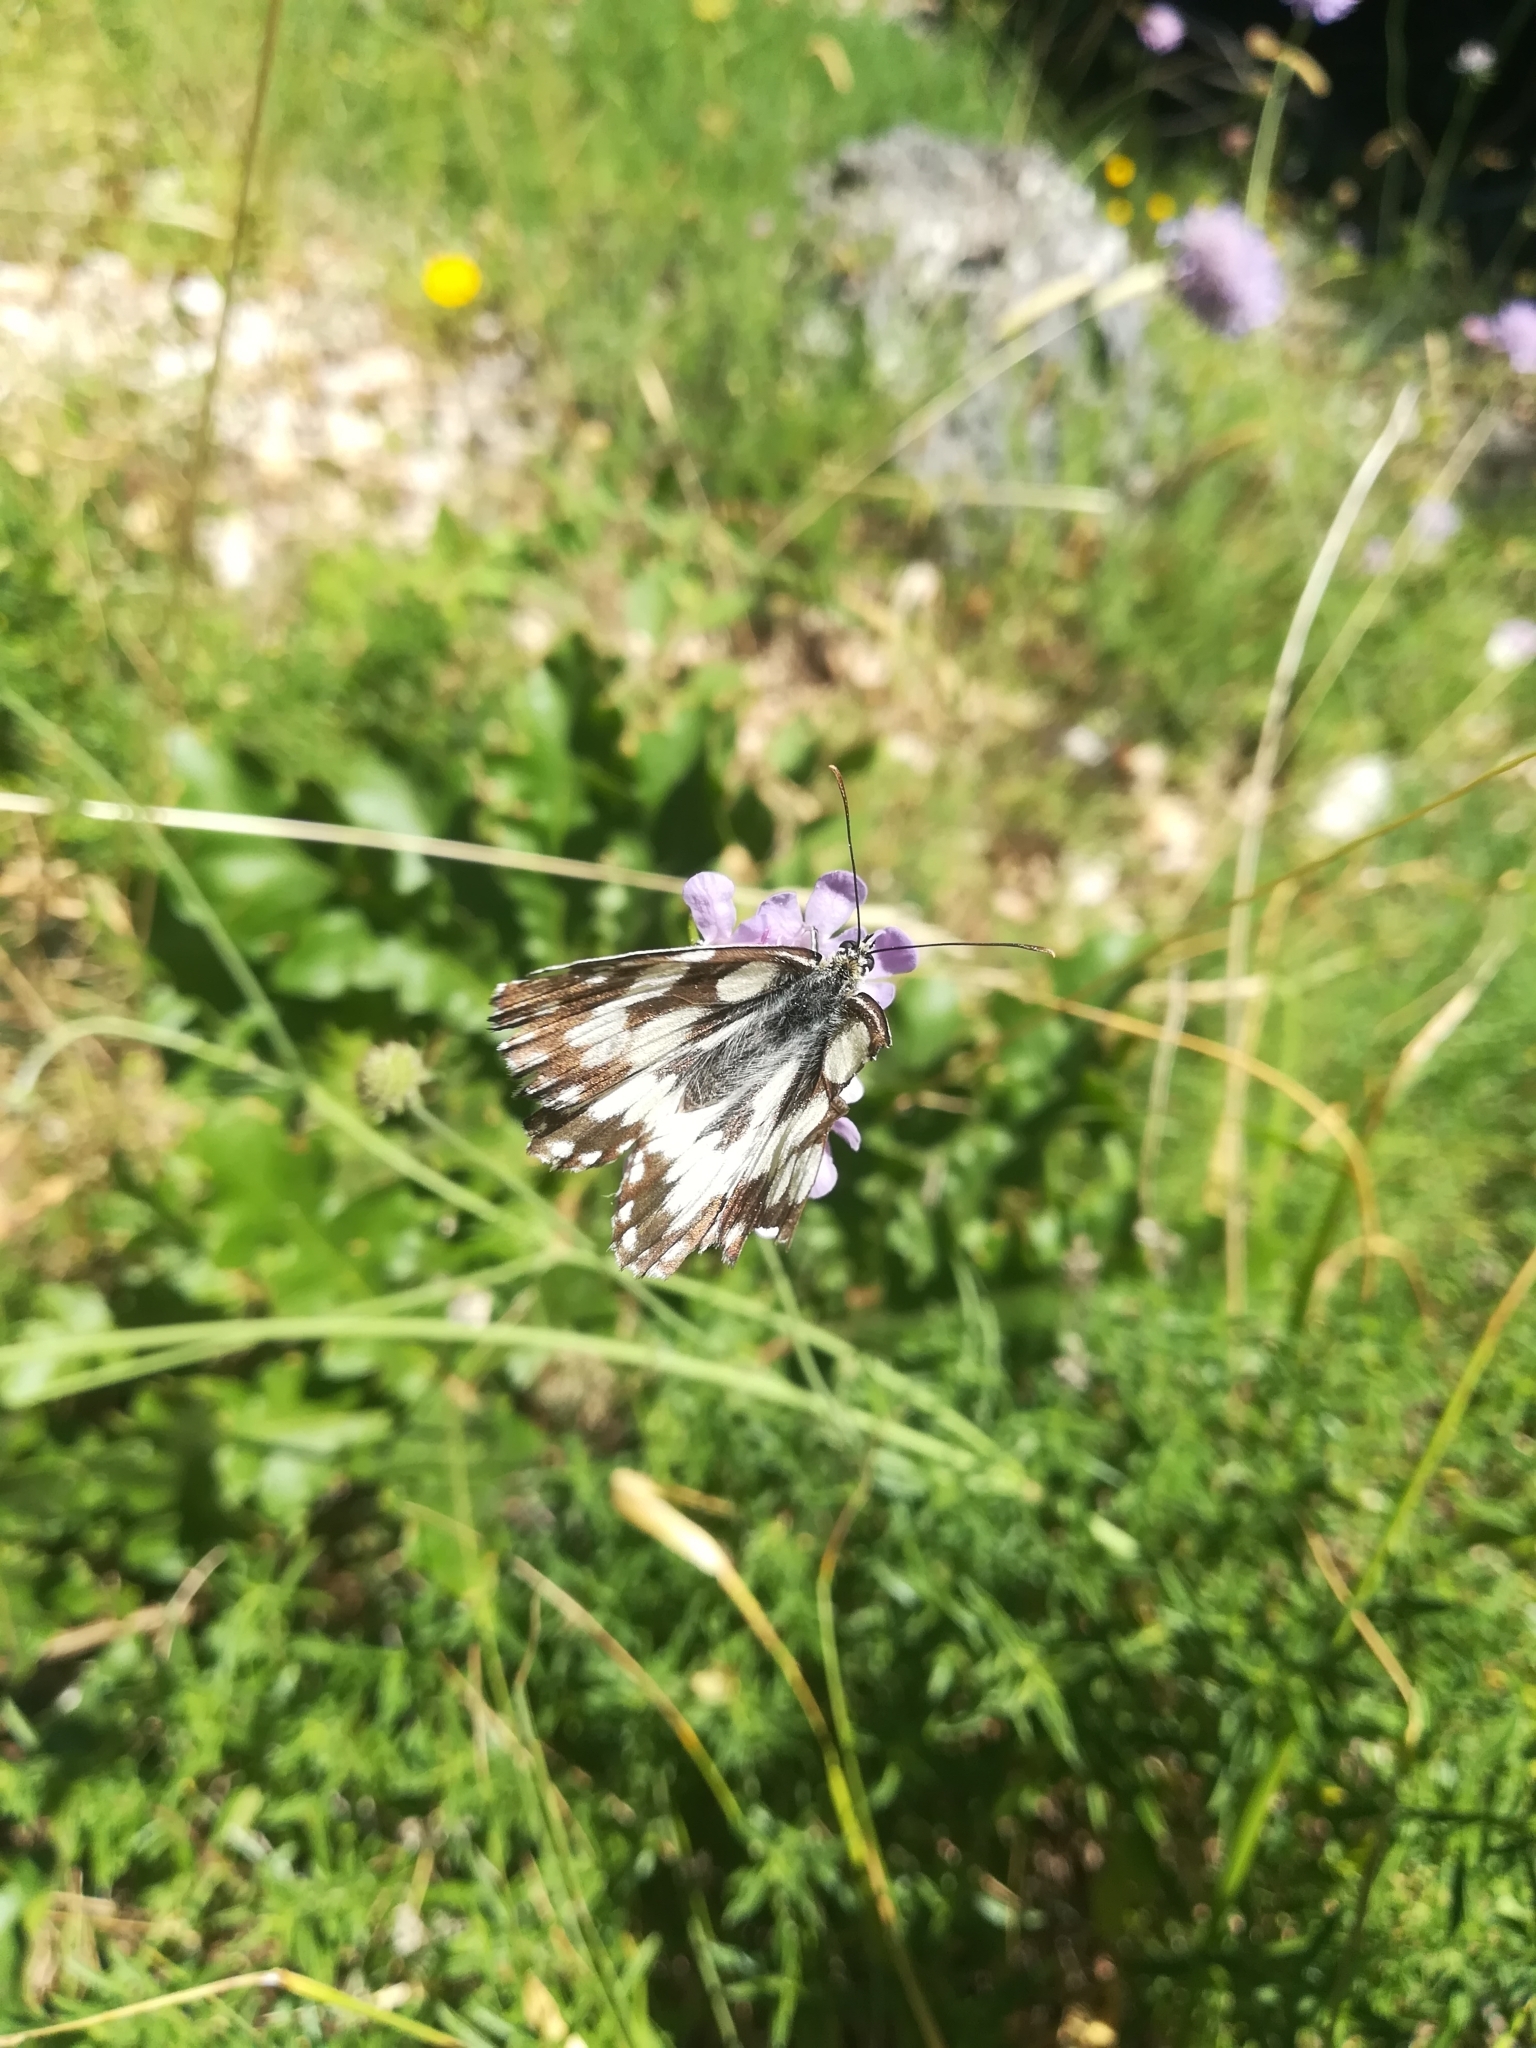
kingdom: Animalia
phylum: Arthropoda
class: Insecta
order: Lepidoptera
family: Nymphalidae
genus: Melanargia
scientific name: Melanargia galathea
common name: Marbled white
